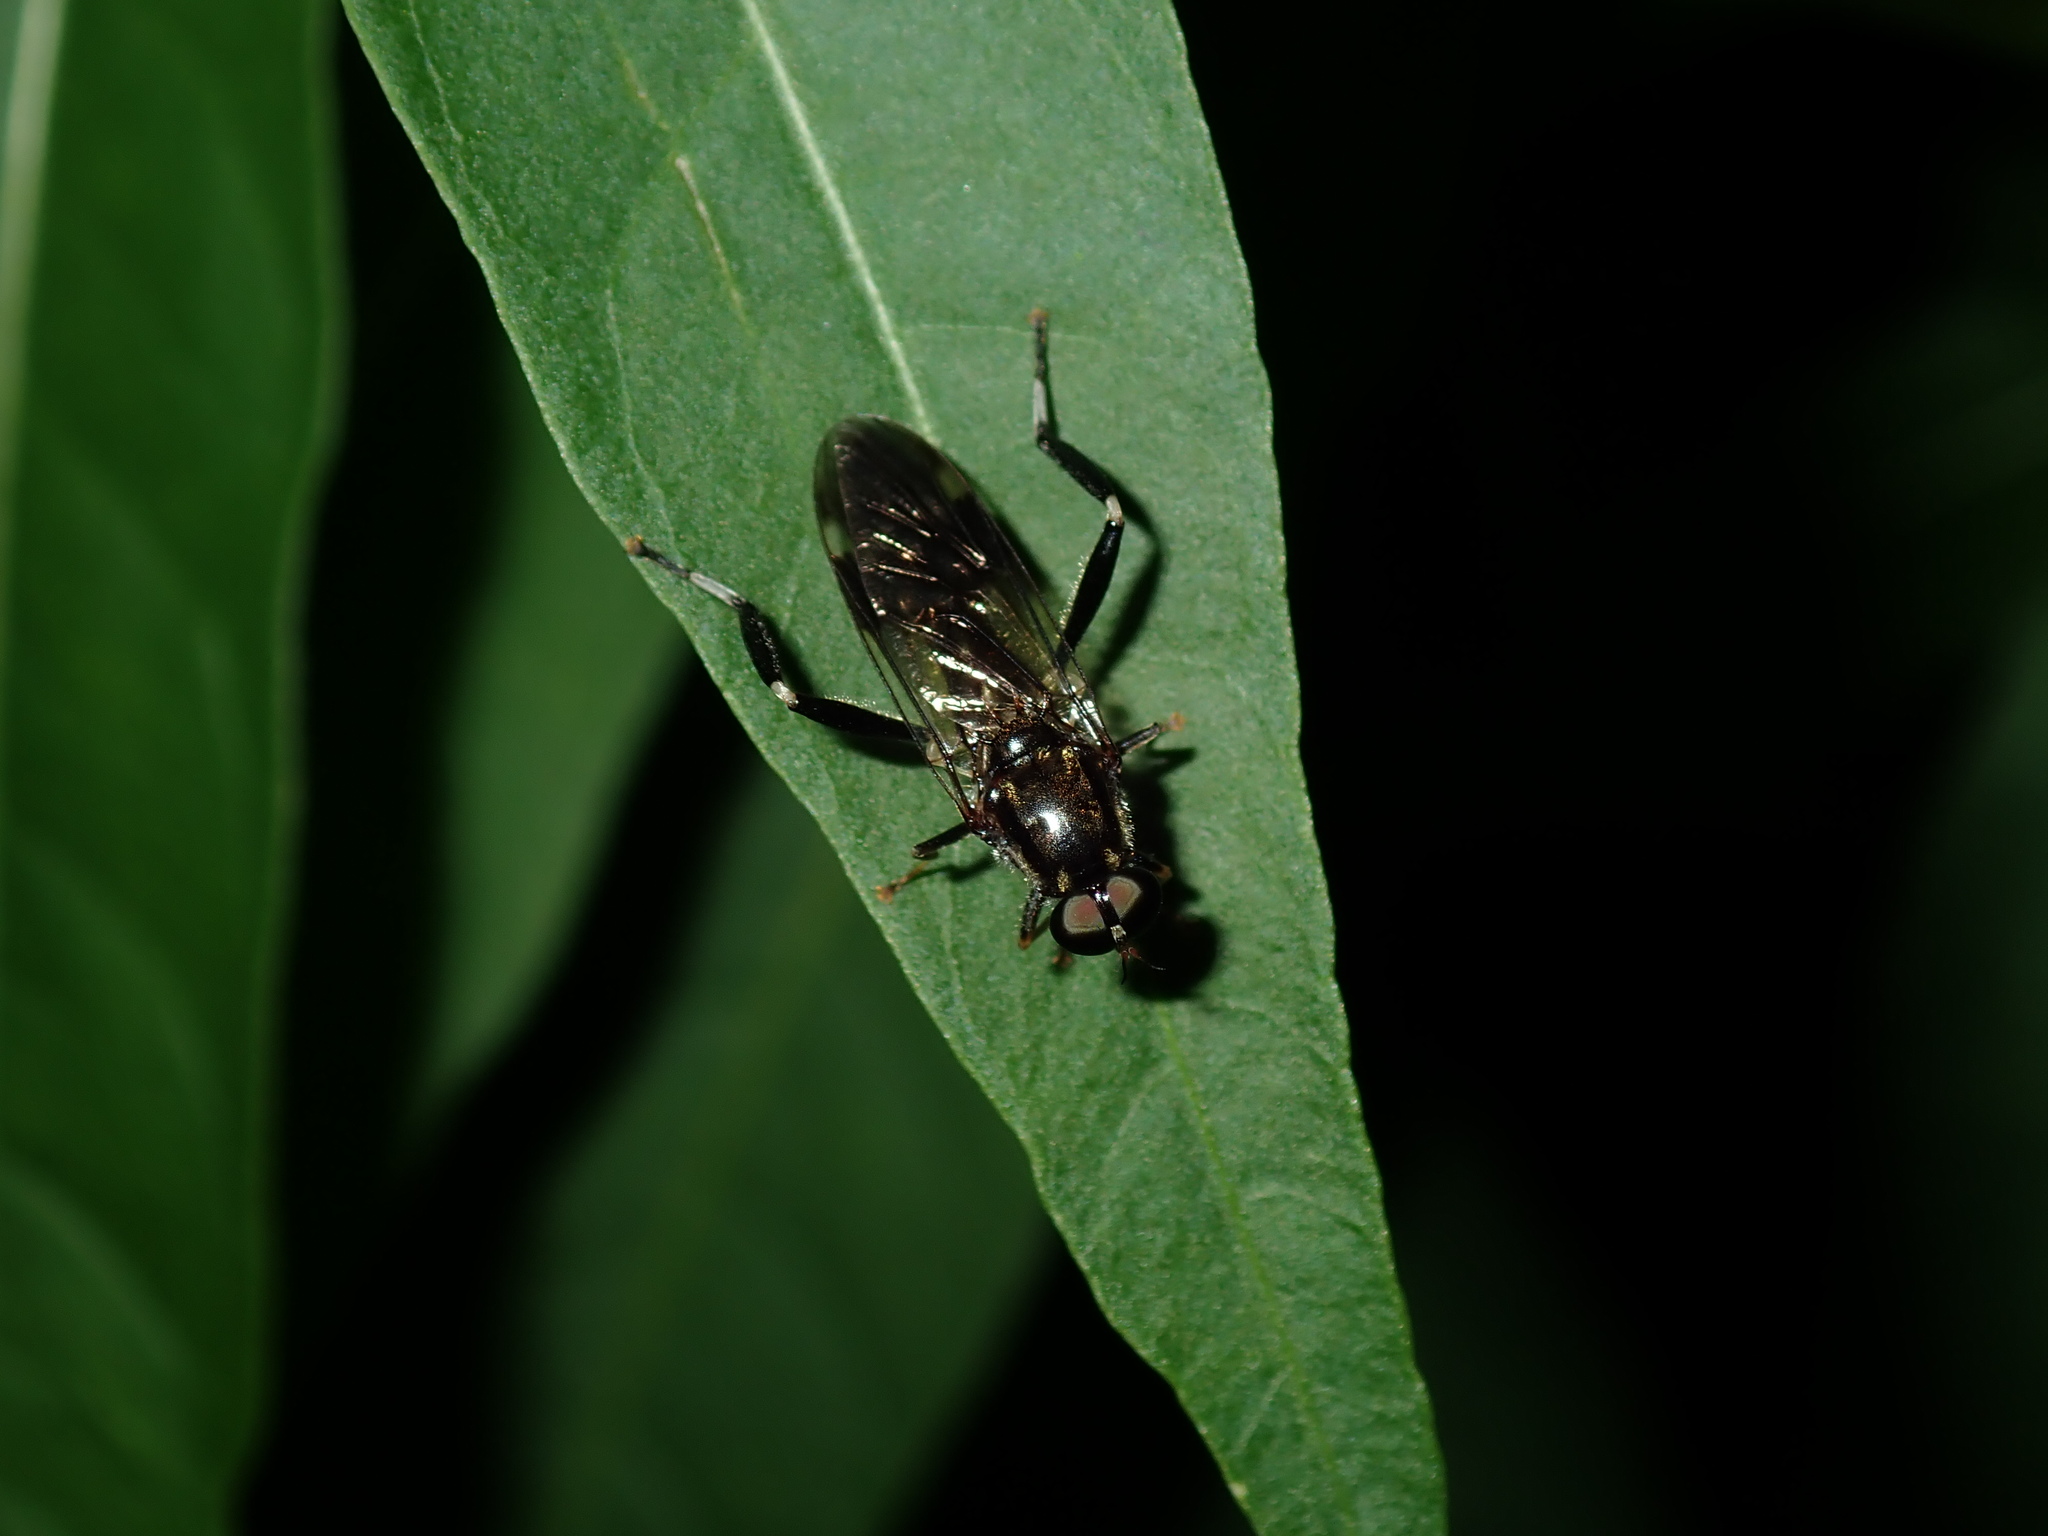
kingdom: Animalia
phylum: Arthropoda
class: Insecta
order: Diptera
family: Stratiomyidae
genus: Exaireta
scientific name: Exaireta spinigera
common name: Blue soldier fly
